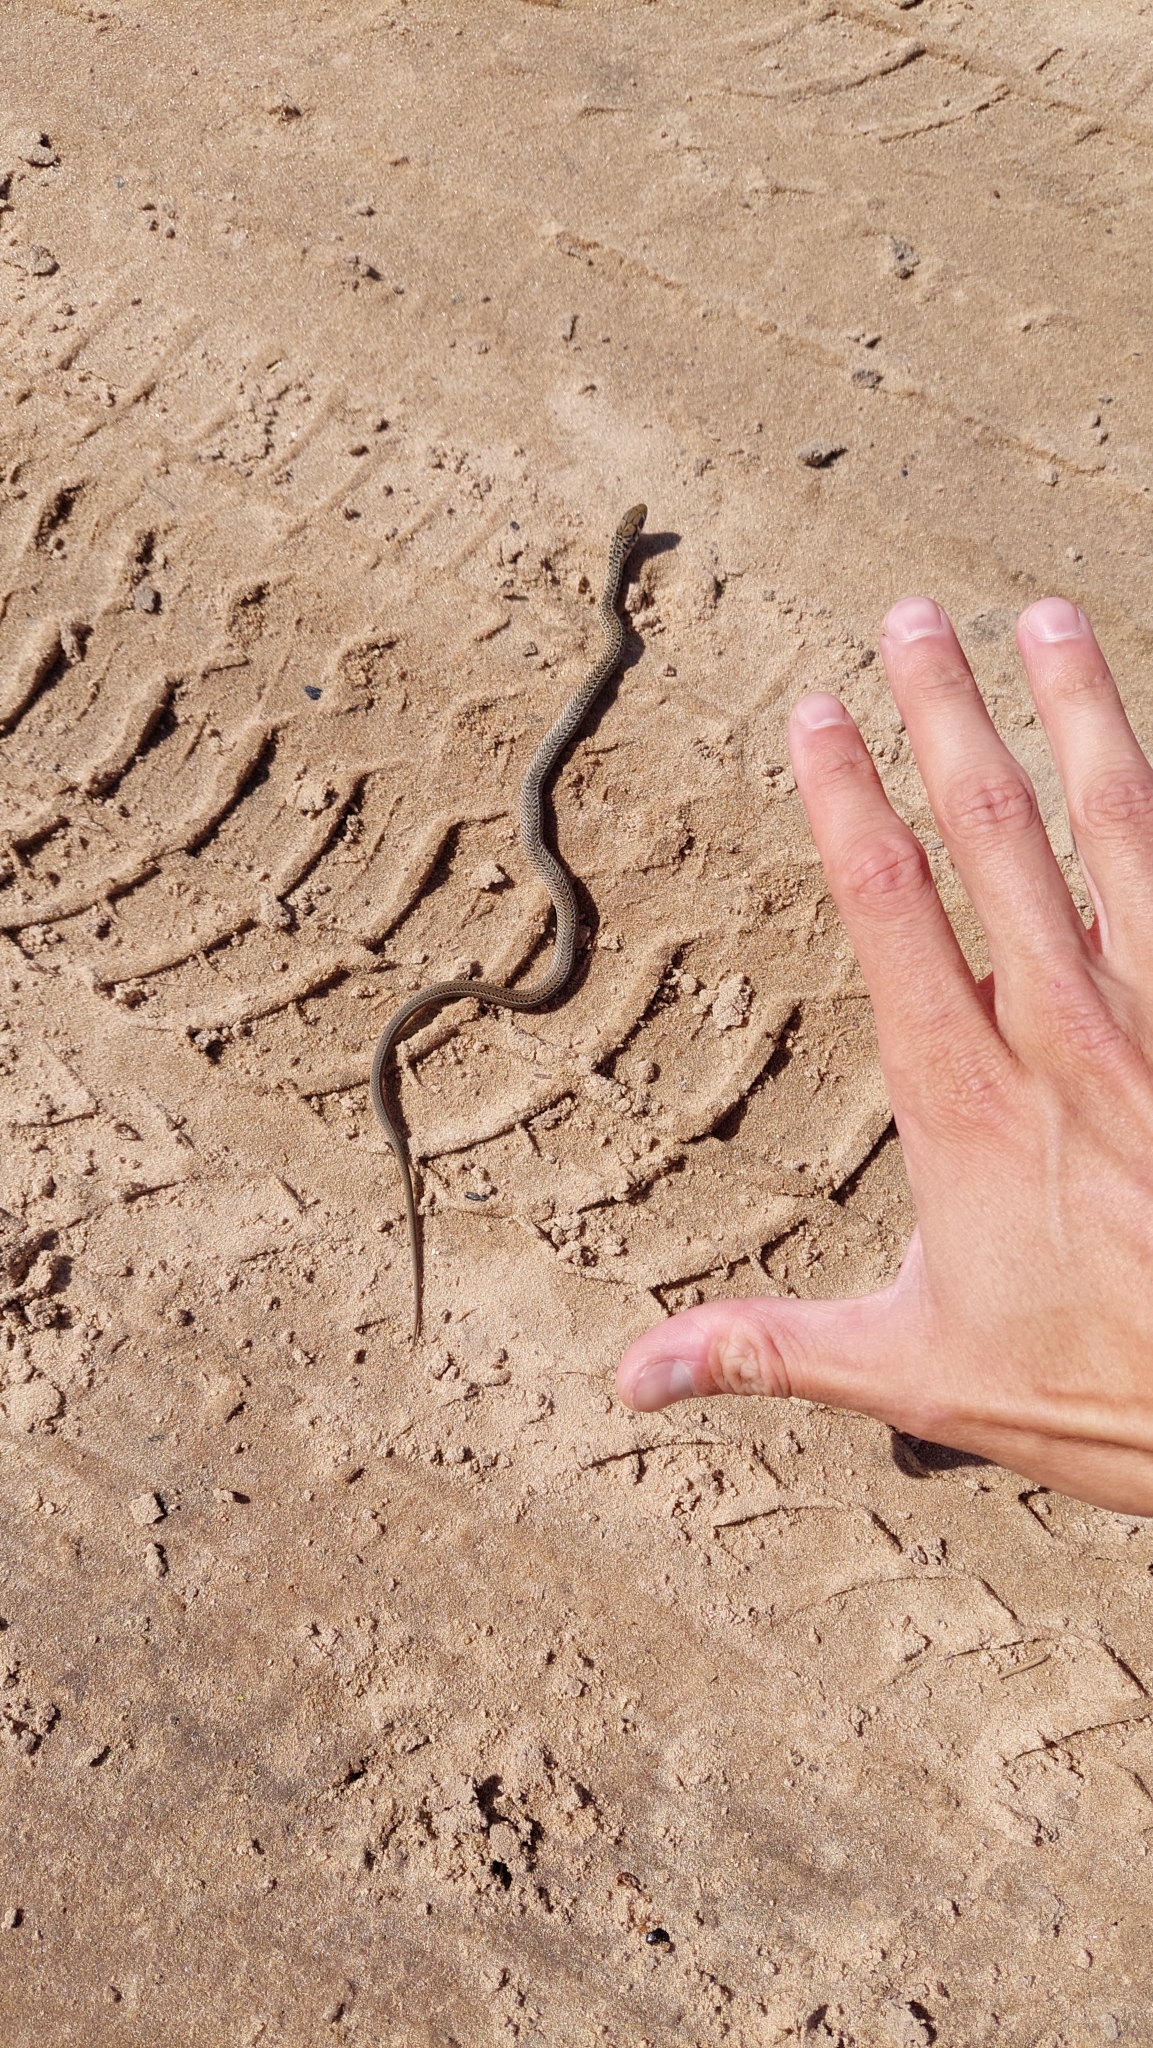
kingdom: Animalia
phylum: Chordata
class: Squamata
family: Colubridae
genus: Philodryas
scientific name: Philodryas patagoniensis
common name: Patagonia green racer
